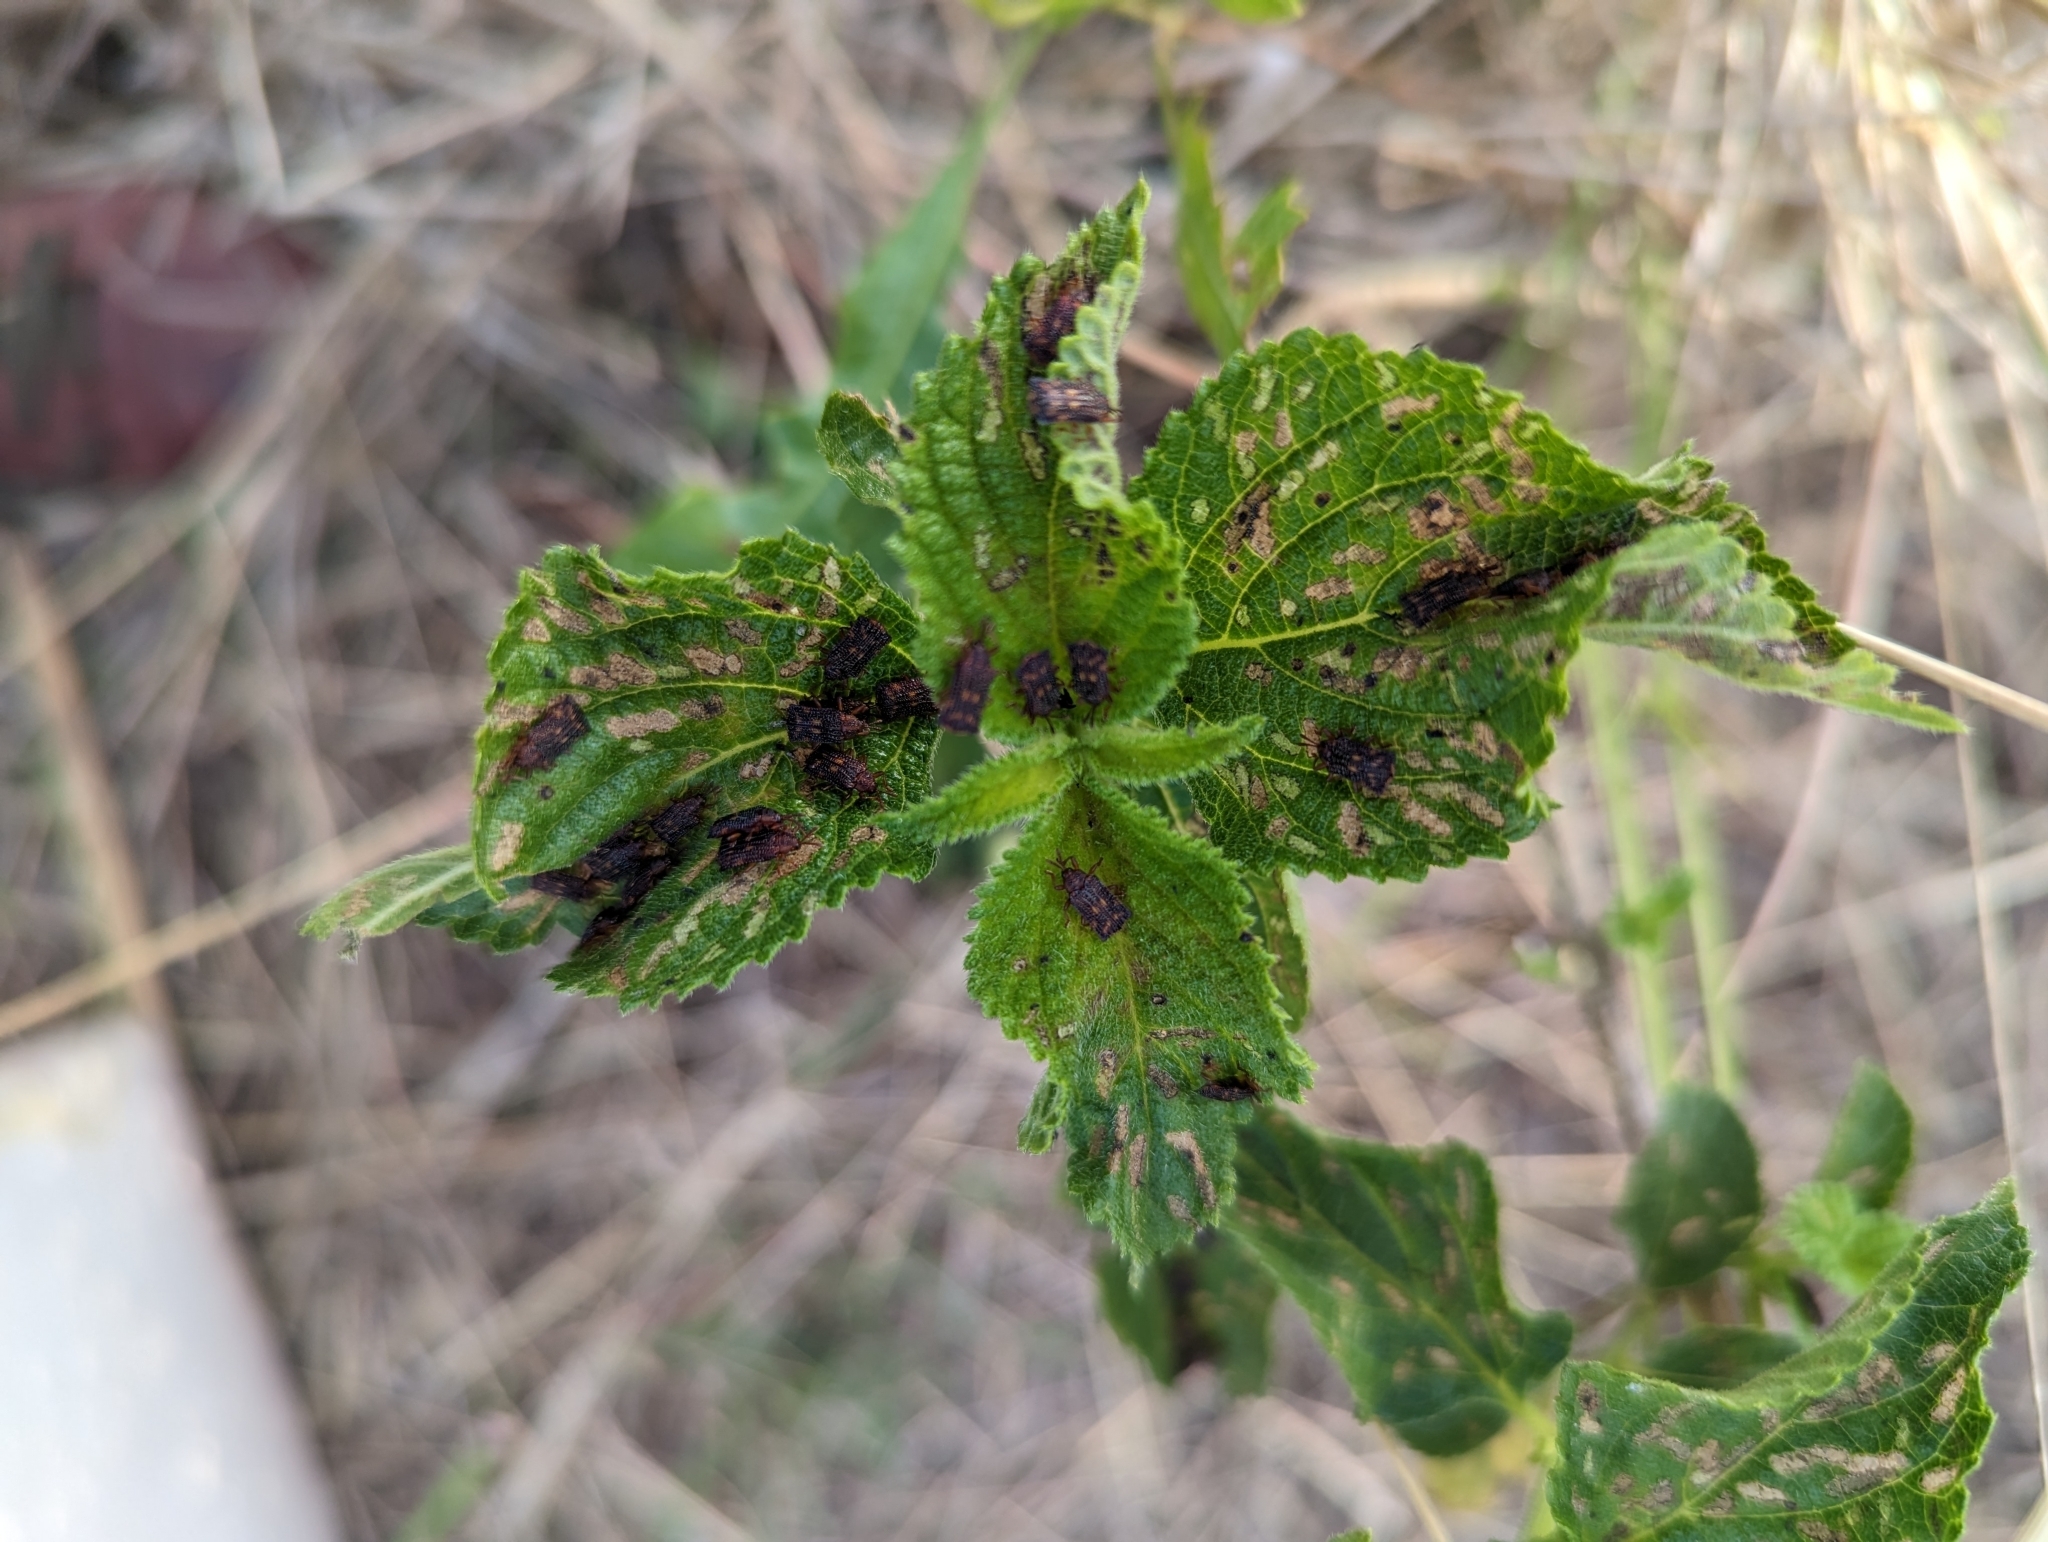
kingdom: Animalia
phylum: Arthropoda
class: Insecta
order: Coleoptera
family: Chrysomelidae
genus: Uroplata
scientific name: Uroplata girardi
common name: Lantana leafminer
